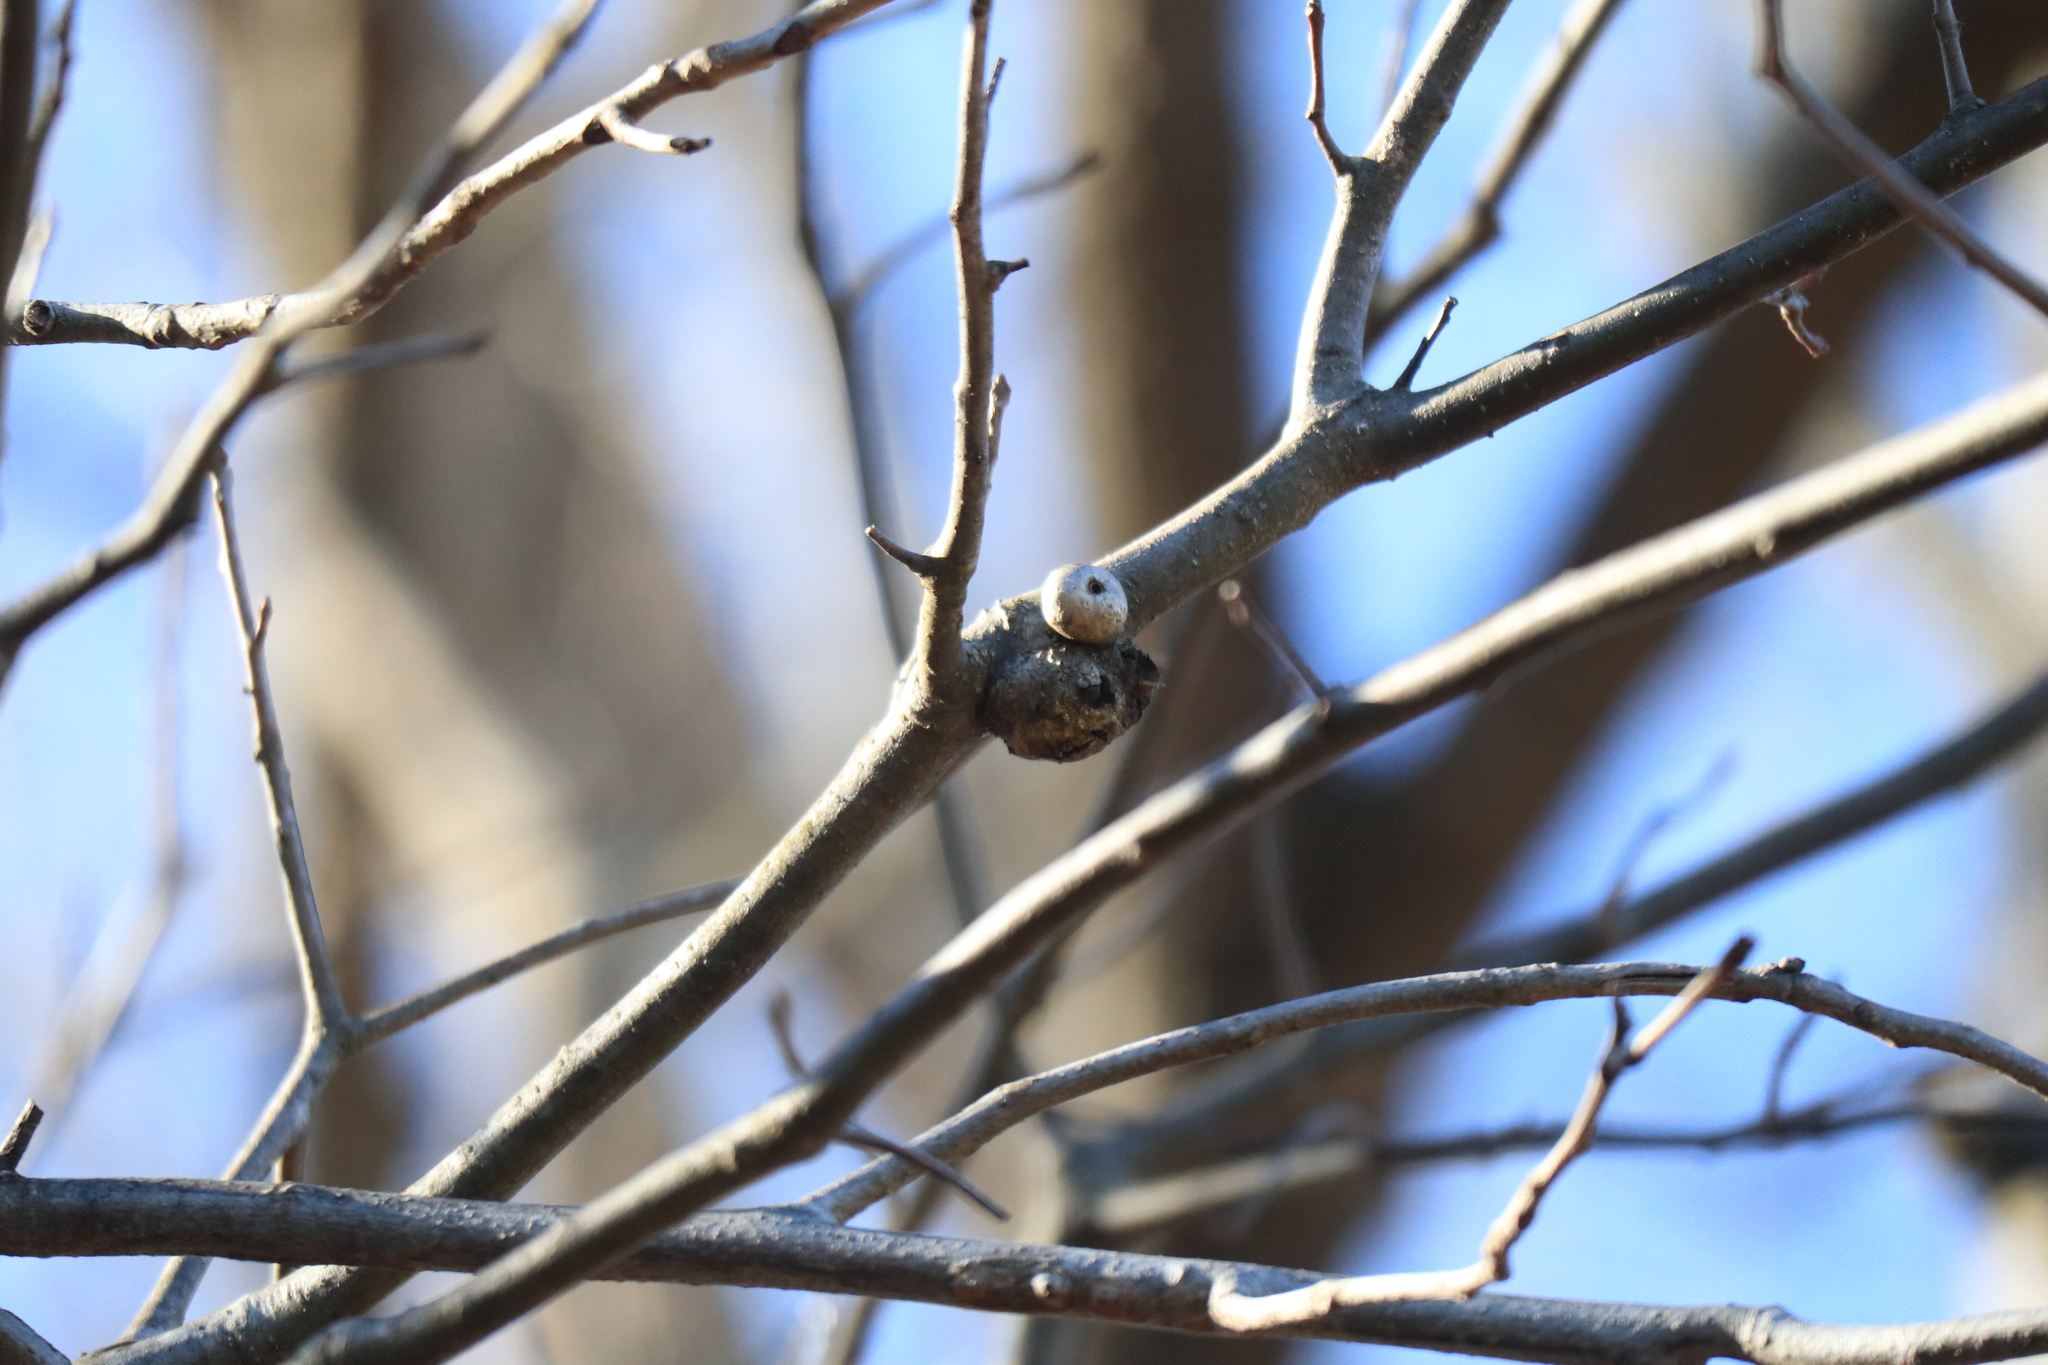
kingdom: Animalia
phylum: Arthropoda
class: Insecta
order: Hymenoptera
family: Cynipidae
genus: Callirhytis
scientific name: Callirhytis
